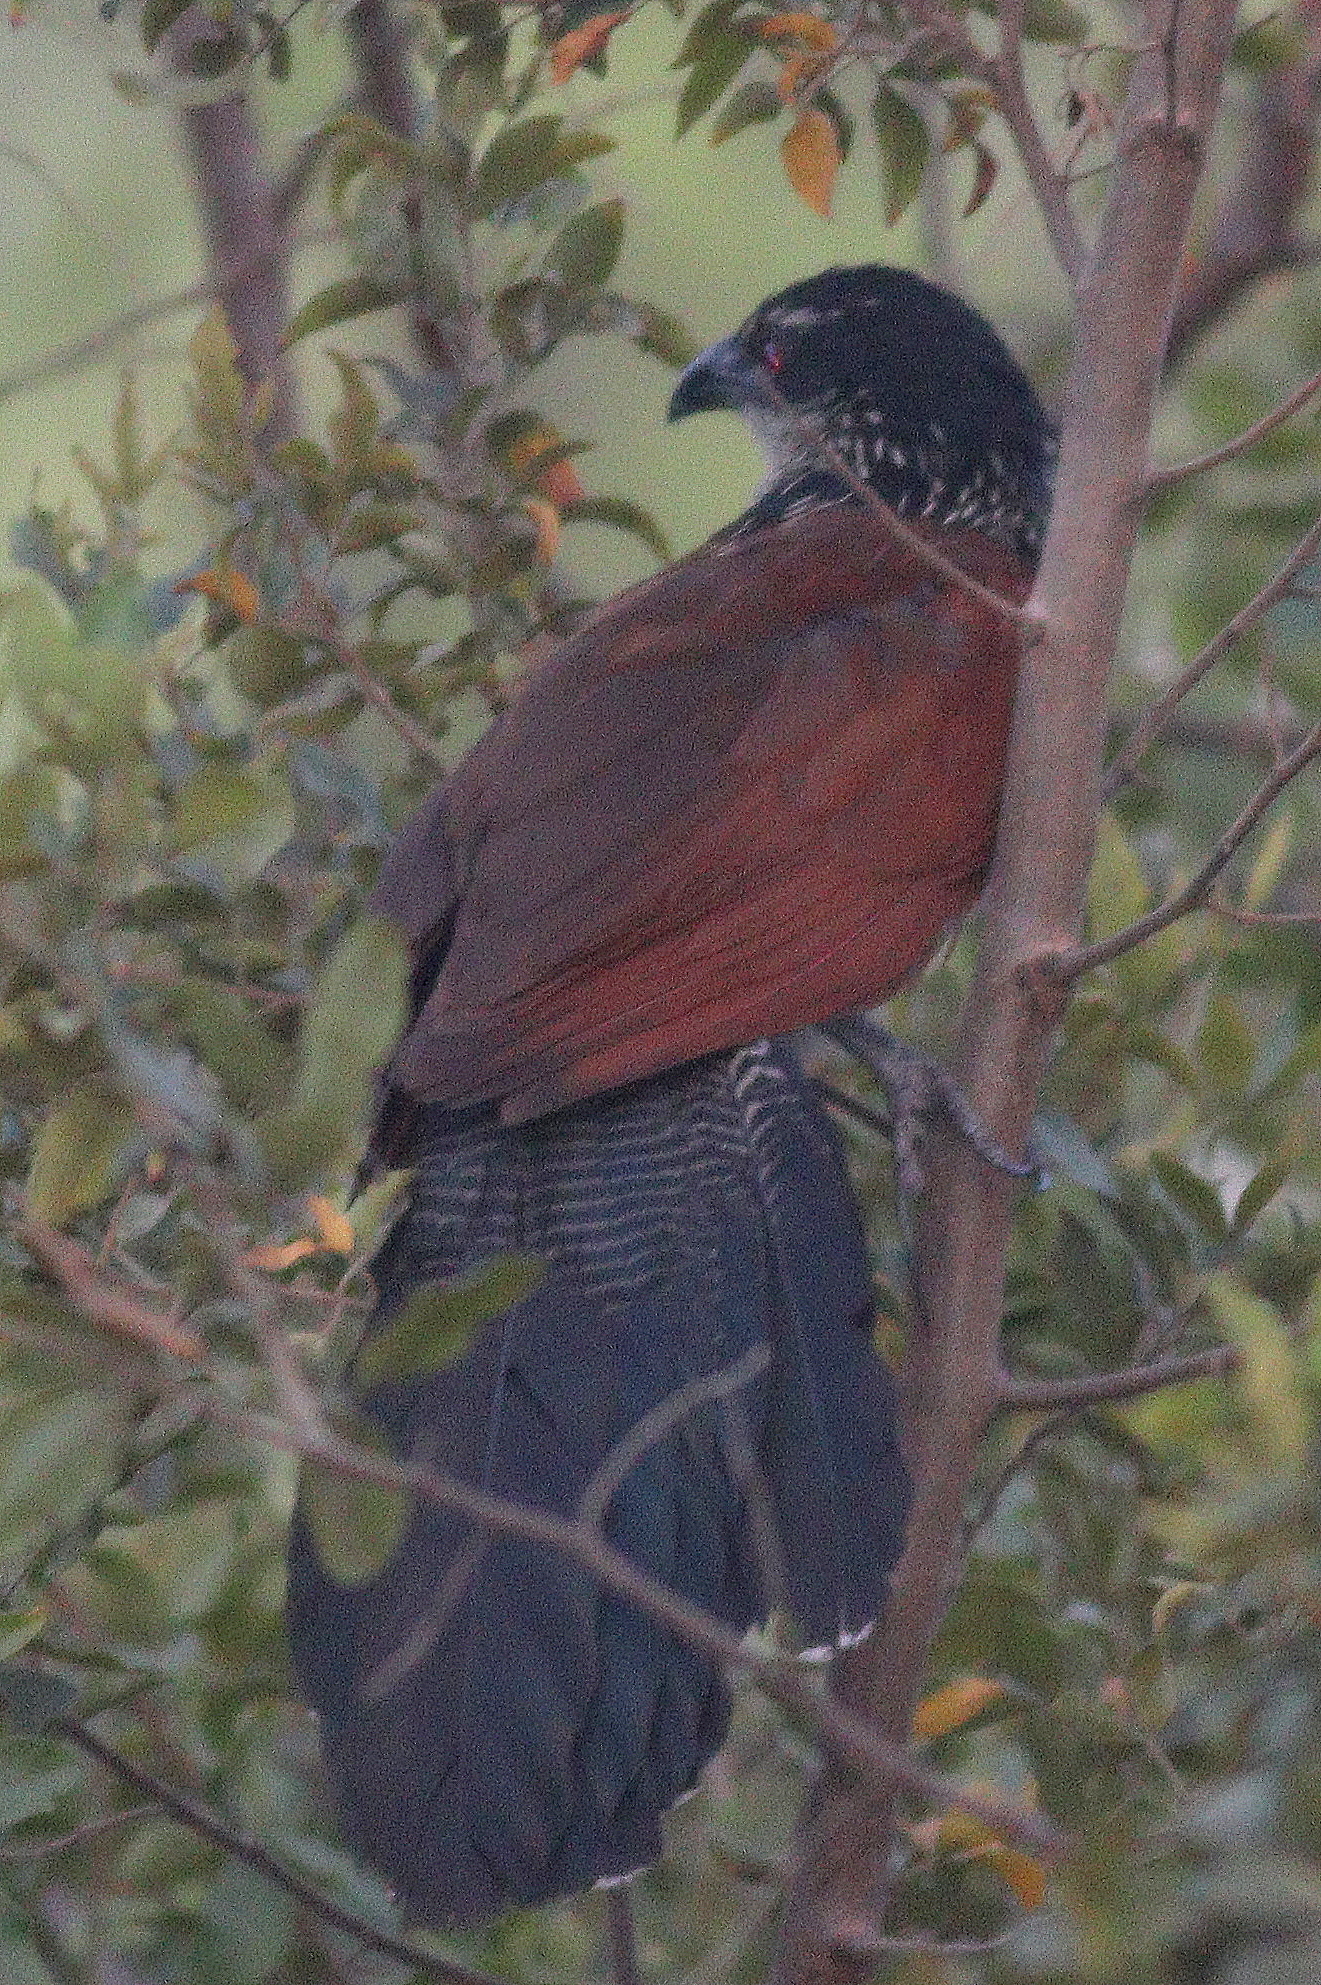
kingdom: Animalia
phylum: Chordata
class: Aves
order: Cuculiformes
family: Cuculidae
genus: Centropus
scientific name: Centropus superciliosus
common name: White-browed coucal
